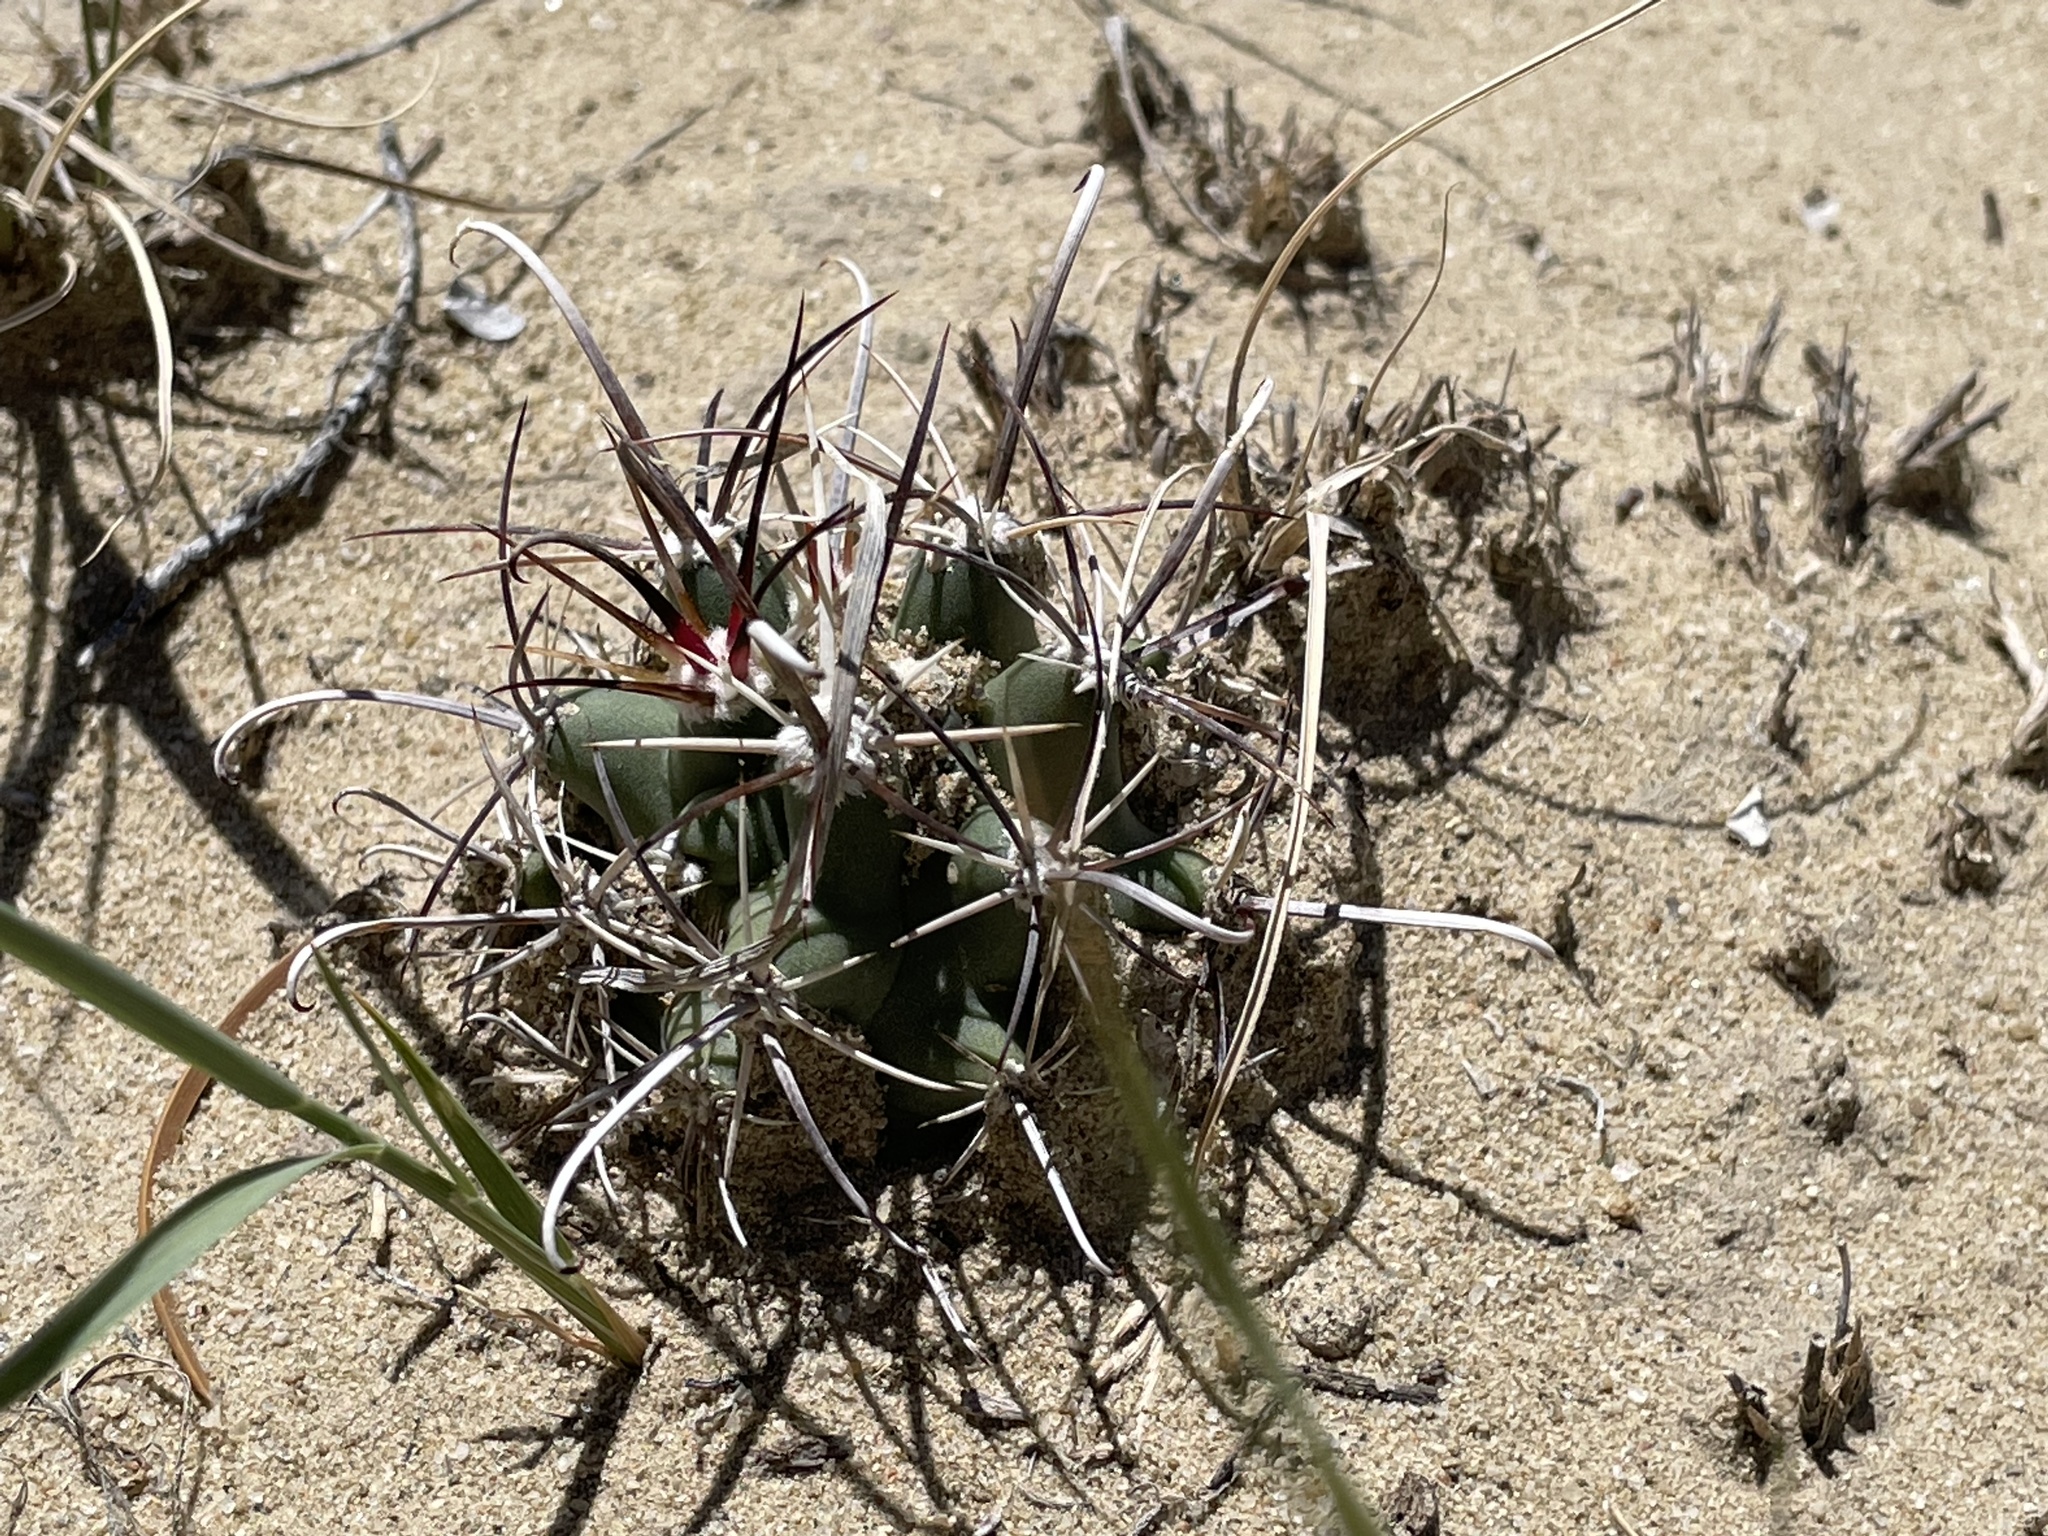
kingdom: Plantae
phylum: Tracheophyta
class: Magnoliopsida
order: Caryophyllales
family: Cactaceae
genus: Sclerocactus
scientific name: Sclerocactus cloverae
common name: Clover's eagle-claw cactus
